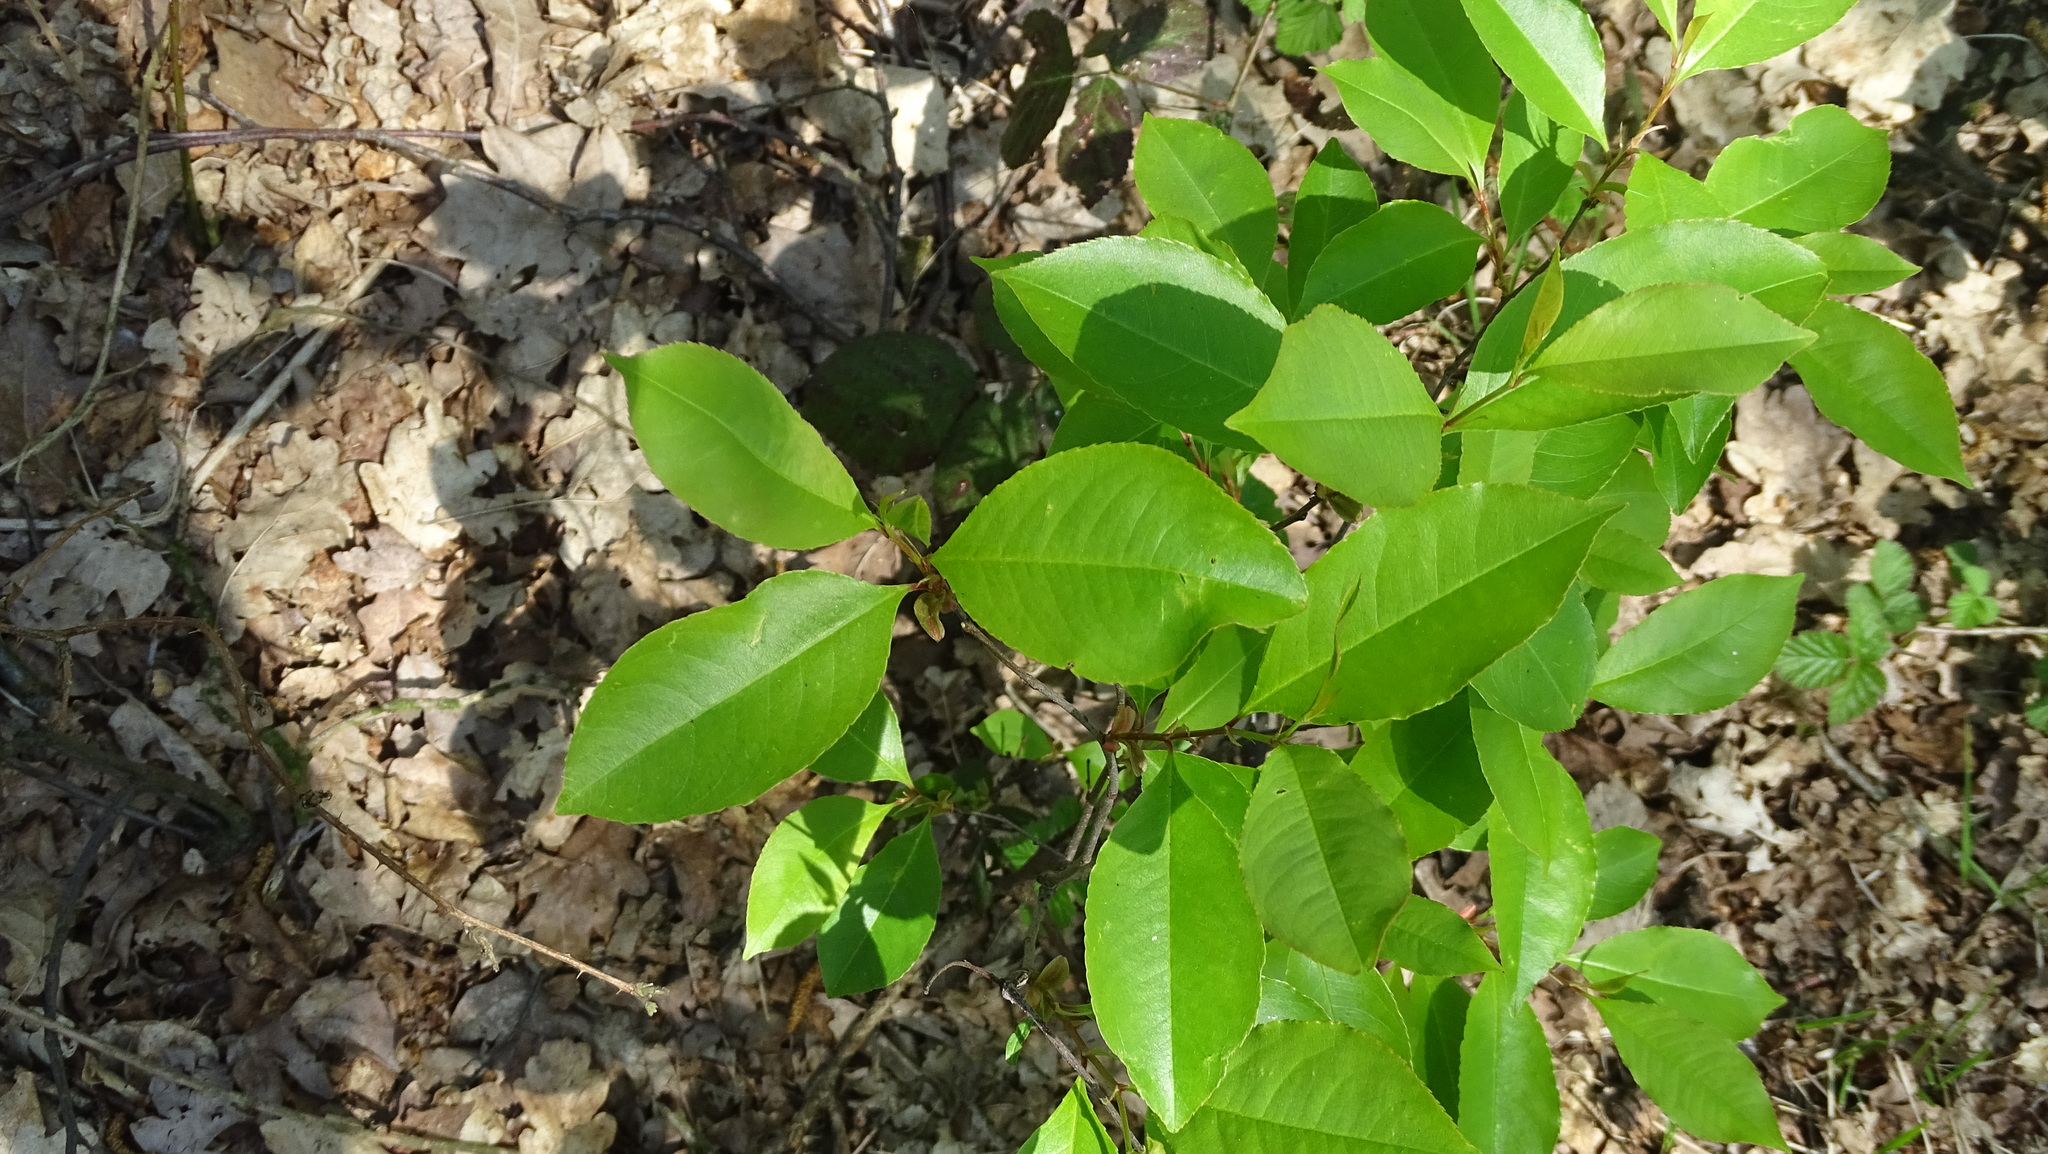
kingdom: Plantae
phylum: Tracheophyta
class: Magnoliopsida
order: Rosales
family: Rosaceae
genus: Prunus
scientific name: Prunus serotina
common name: Black cherry
